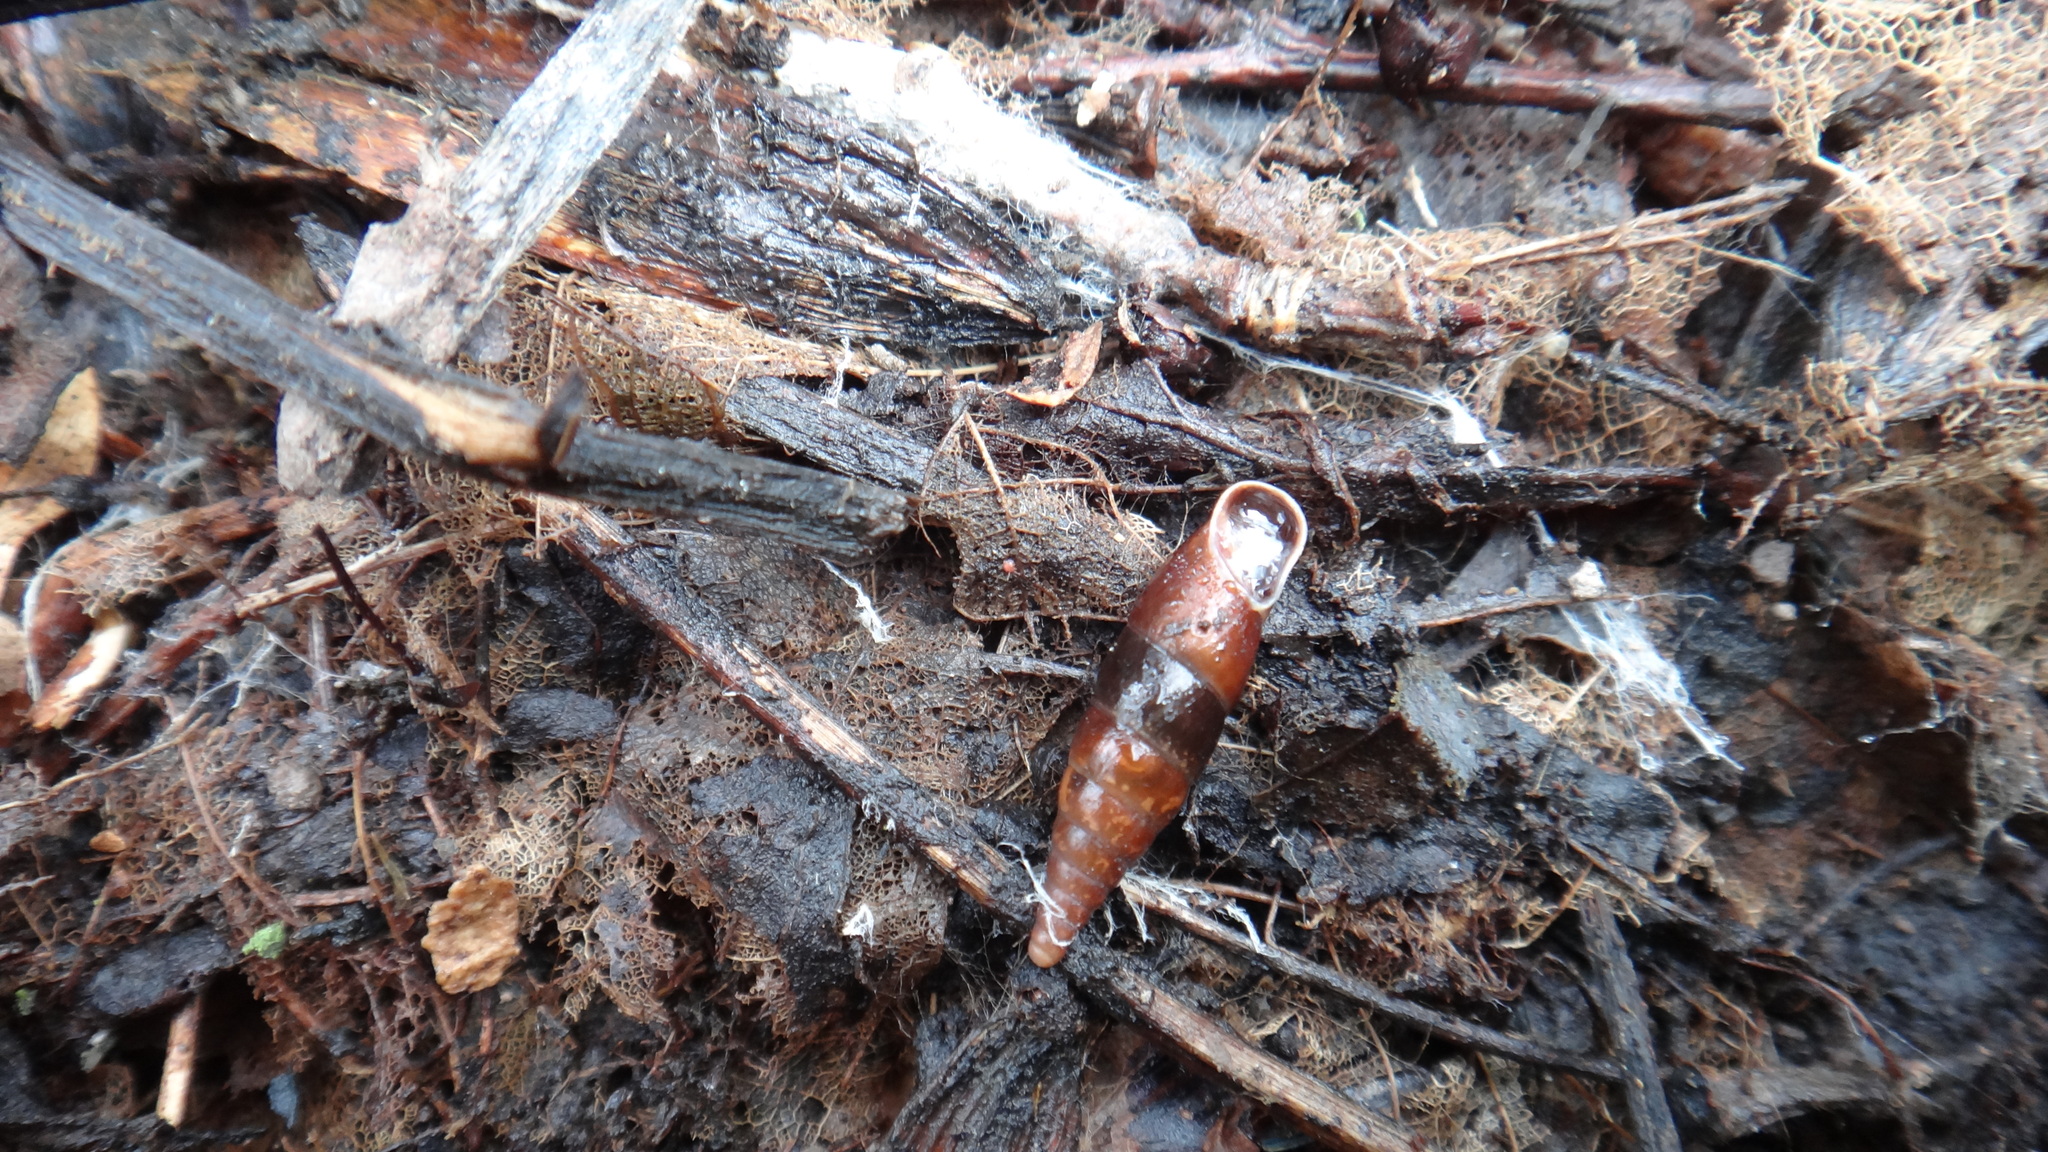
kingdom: Animalia
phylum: Mollusca
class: Gastropoda
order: Stylommatophora
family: Clausiliidae
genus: Cochlodina
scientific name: Cochlodina laminata
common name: Plaited door snail
